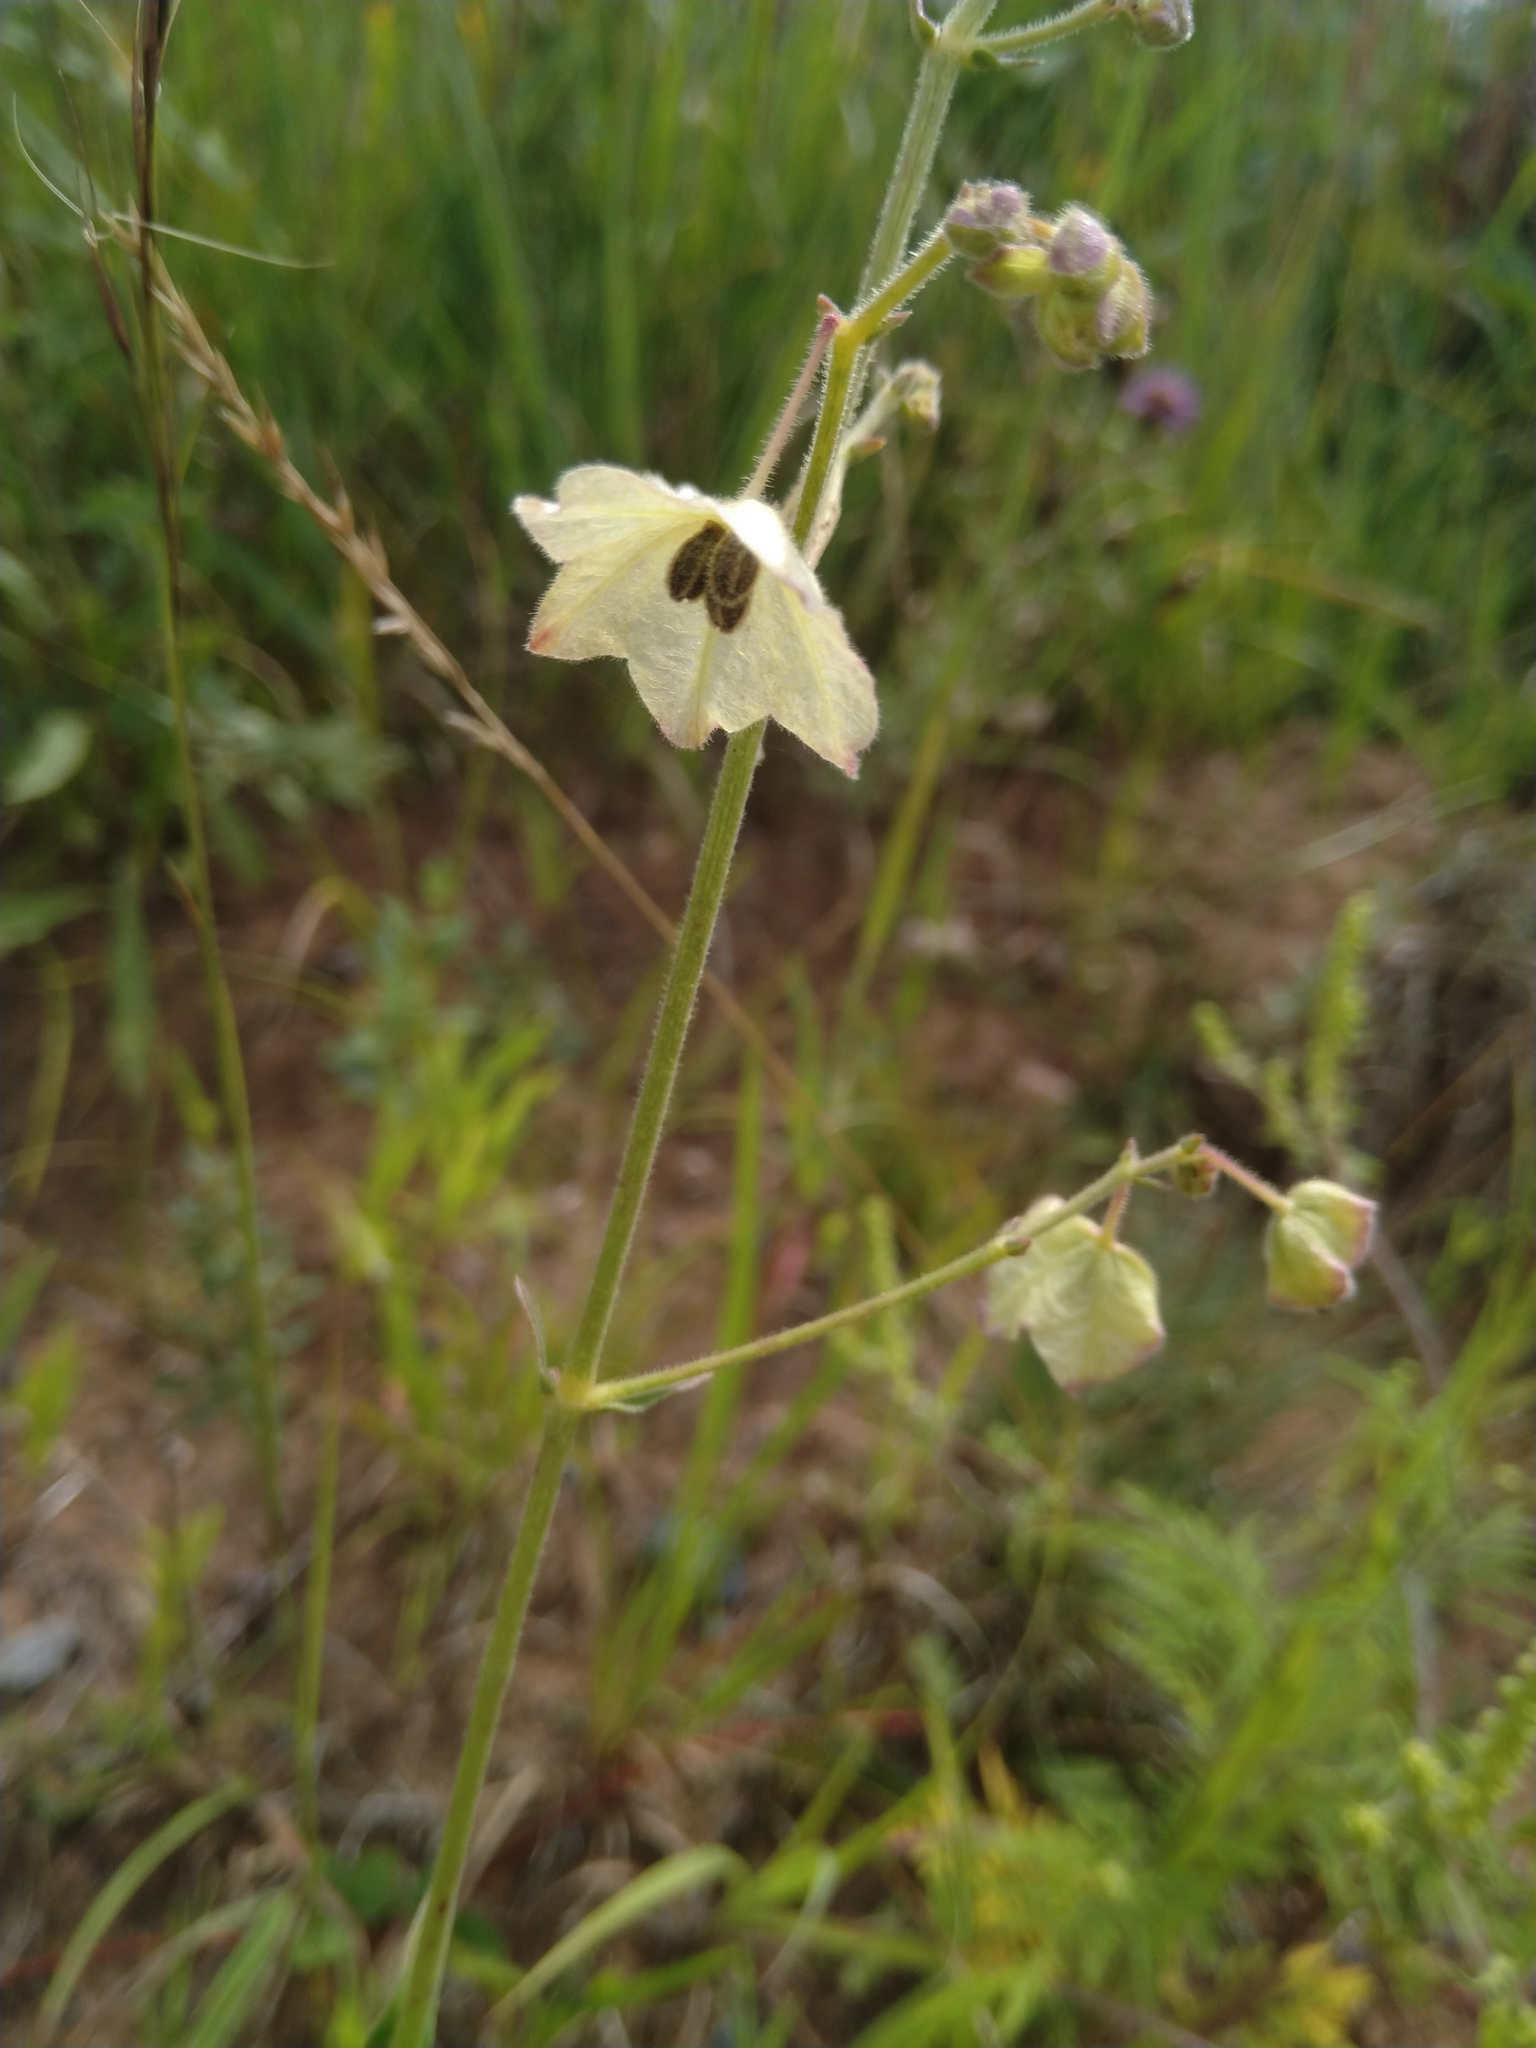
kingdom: Plantae
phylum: Tracheophyta
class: Magnoliopsida
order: Caryophyllales
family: Nyctaginaceae
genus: Mirabilis
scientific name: Mirabilis albida
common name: Hairy four-o'clock
